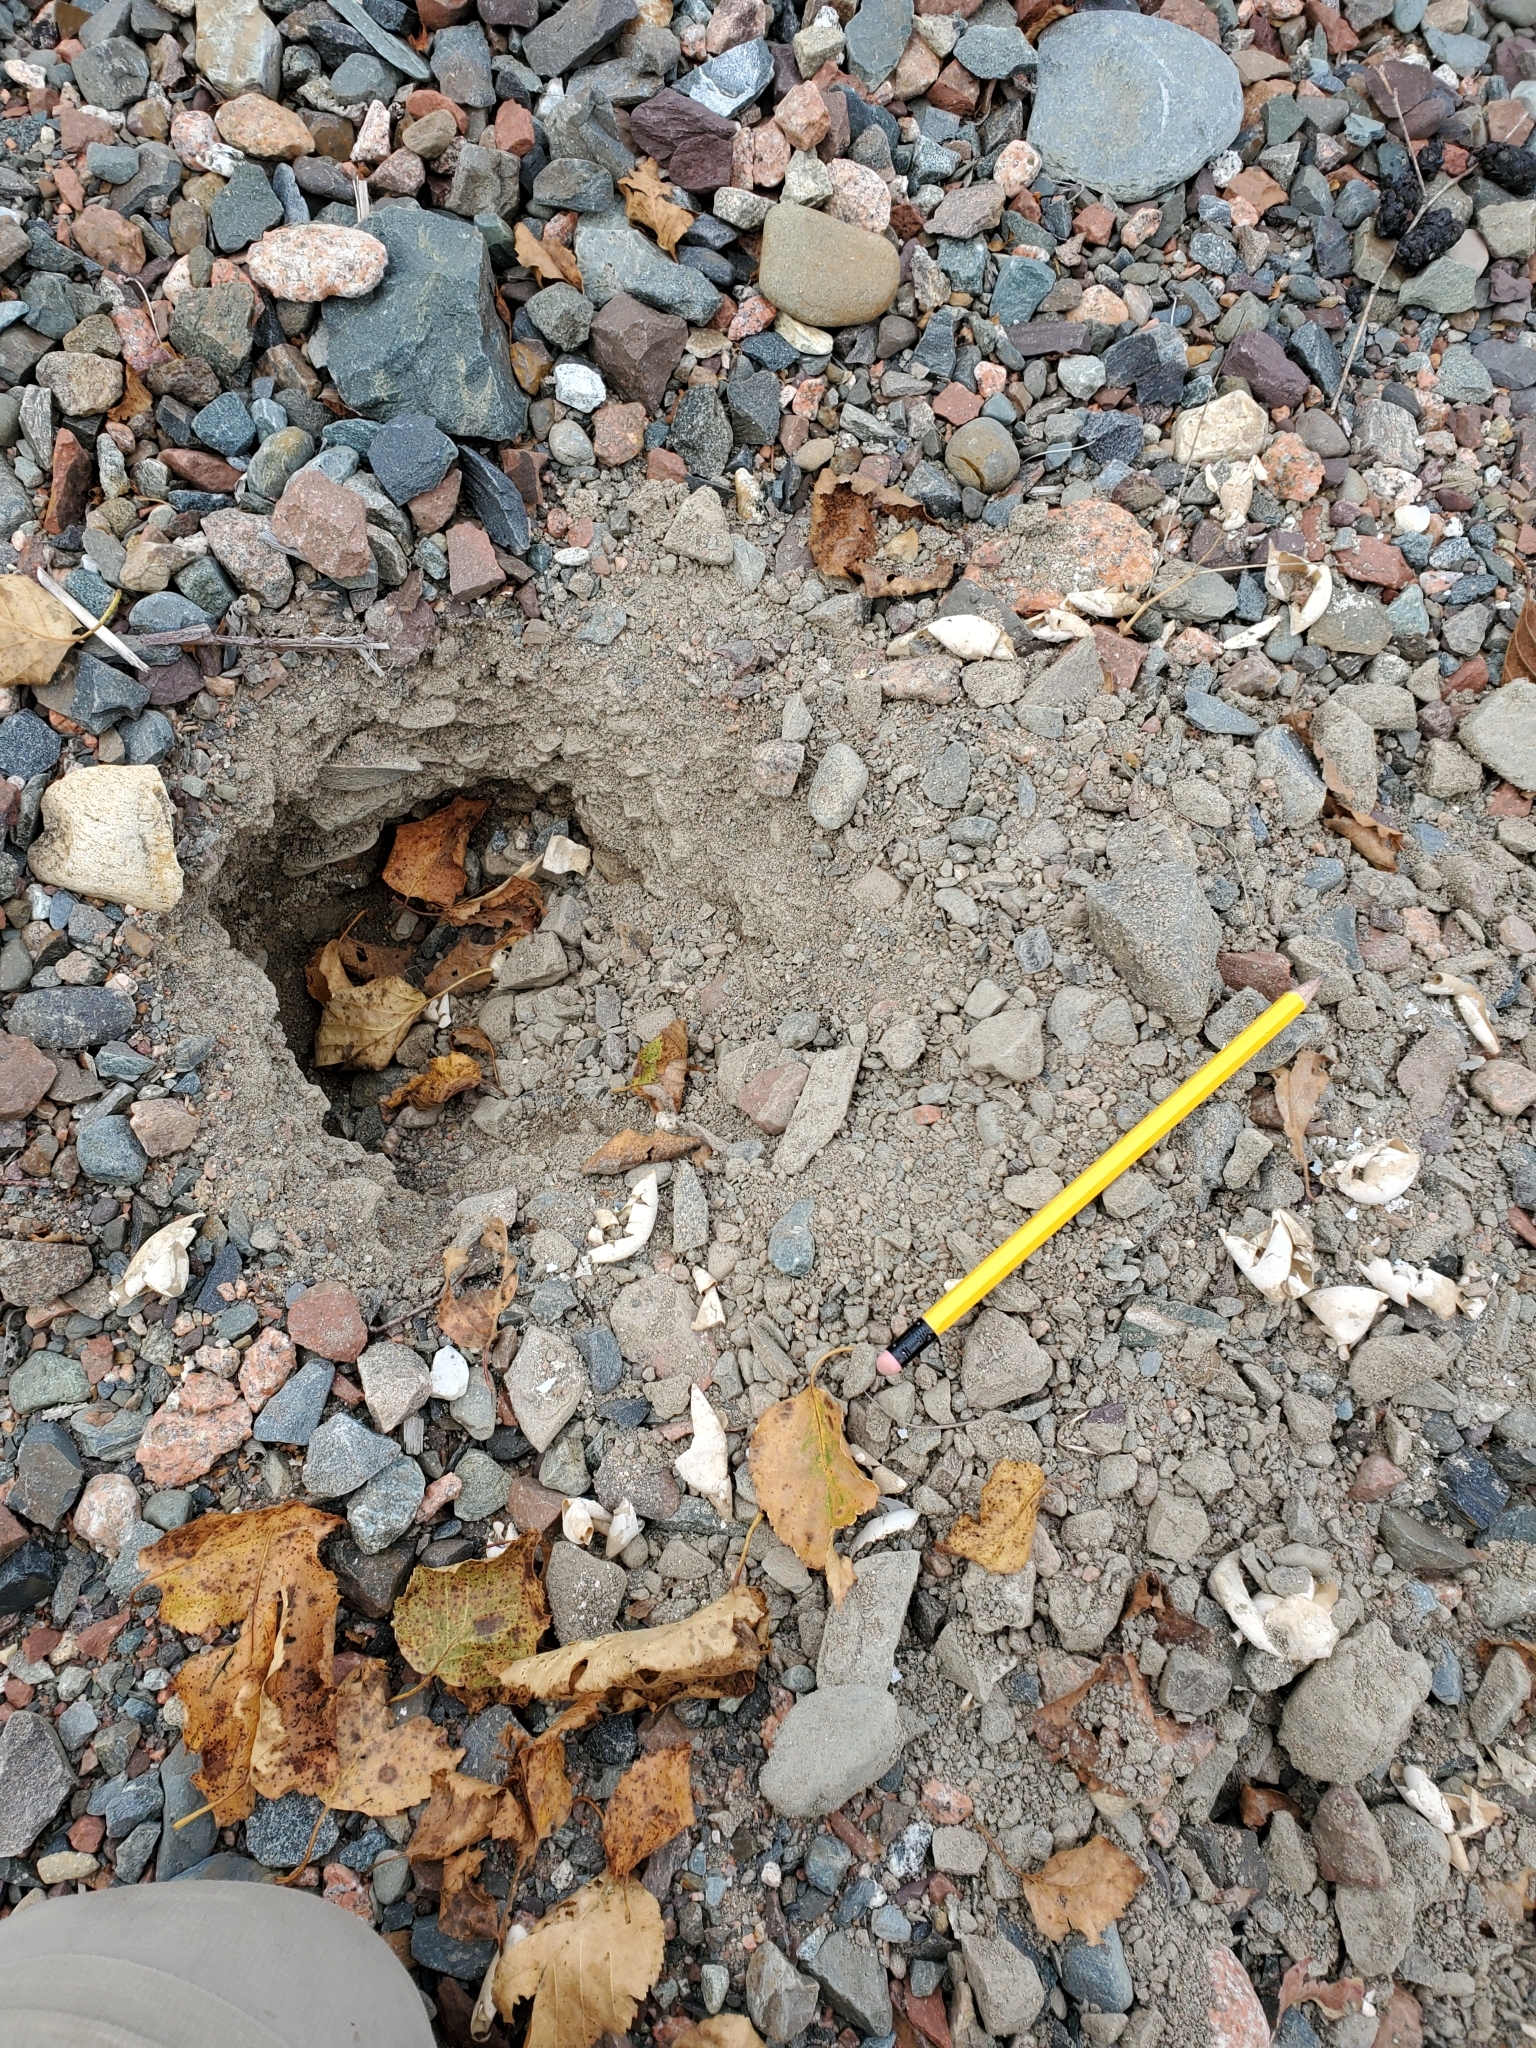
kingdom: Animalia
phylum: Chordata
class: Testudines
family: Chelydridae
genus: Chelydra
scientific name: Chelydra serpentina
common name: Common snapping turtle
